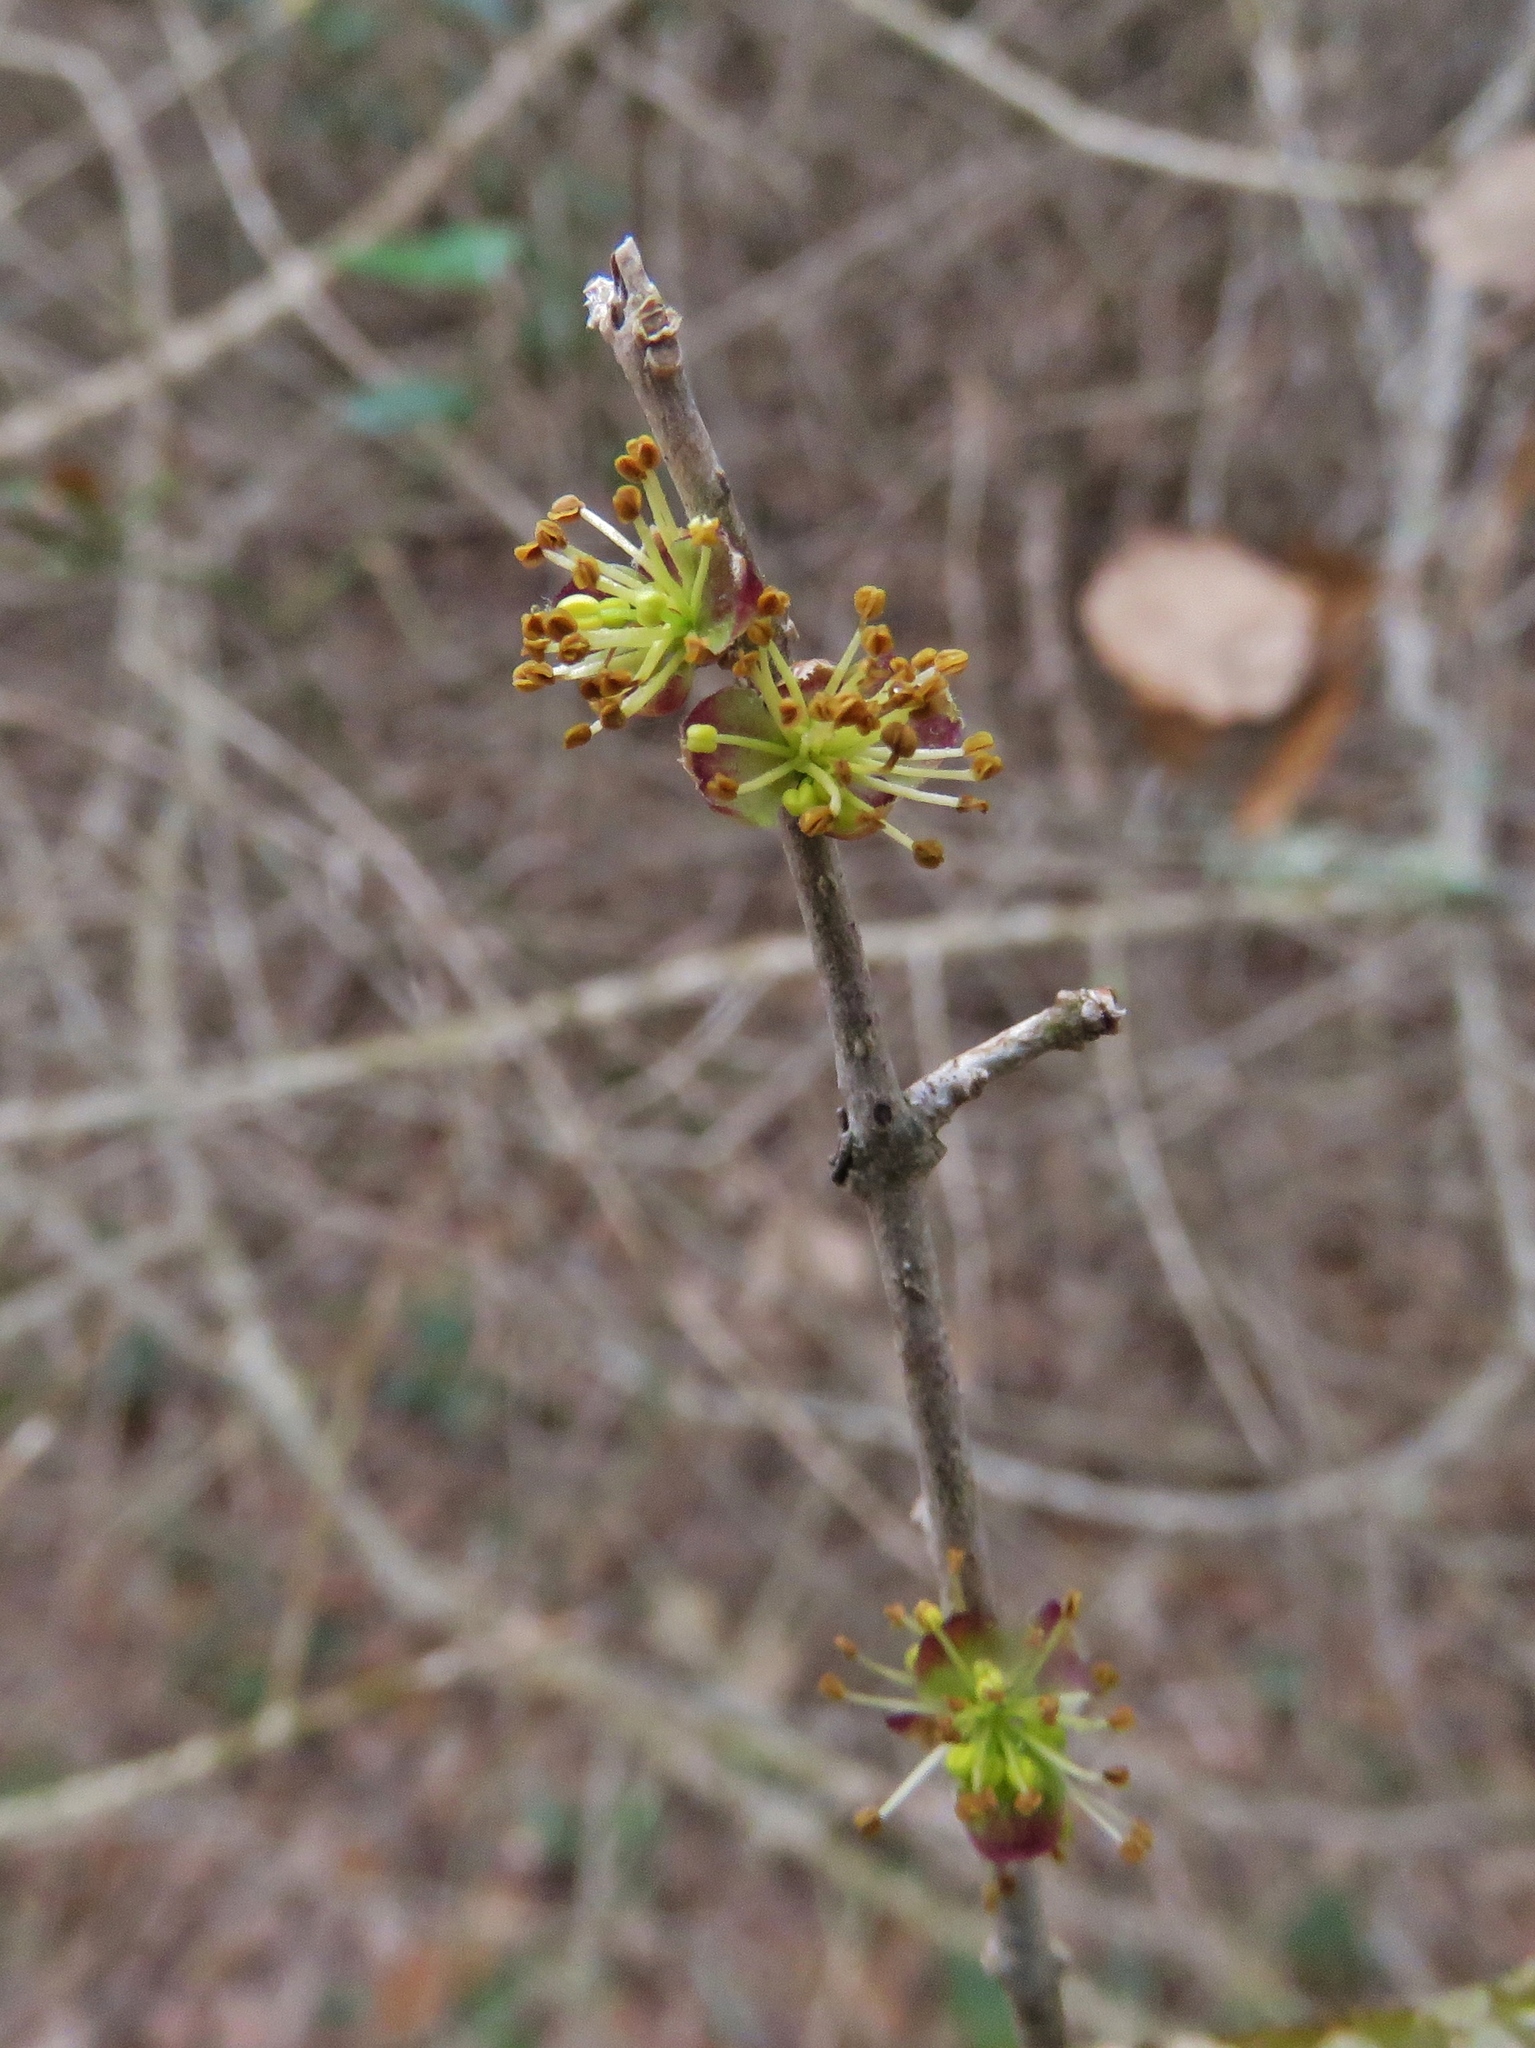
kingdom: Plantae
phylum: Tracheophyta
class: Magnoliopsida
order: Lamiales
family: Oleaceae
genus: Forestiera
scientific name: Forestiera pubescens
